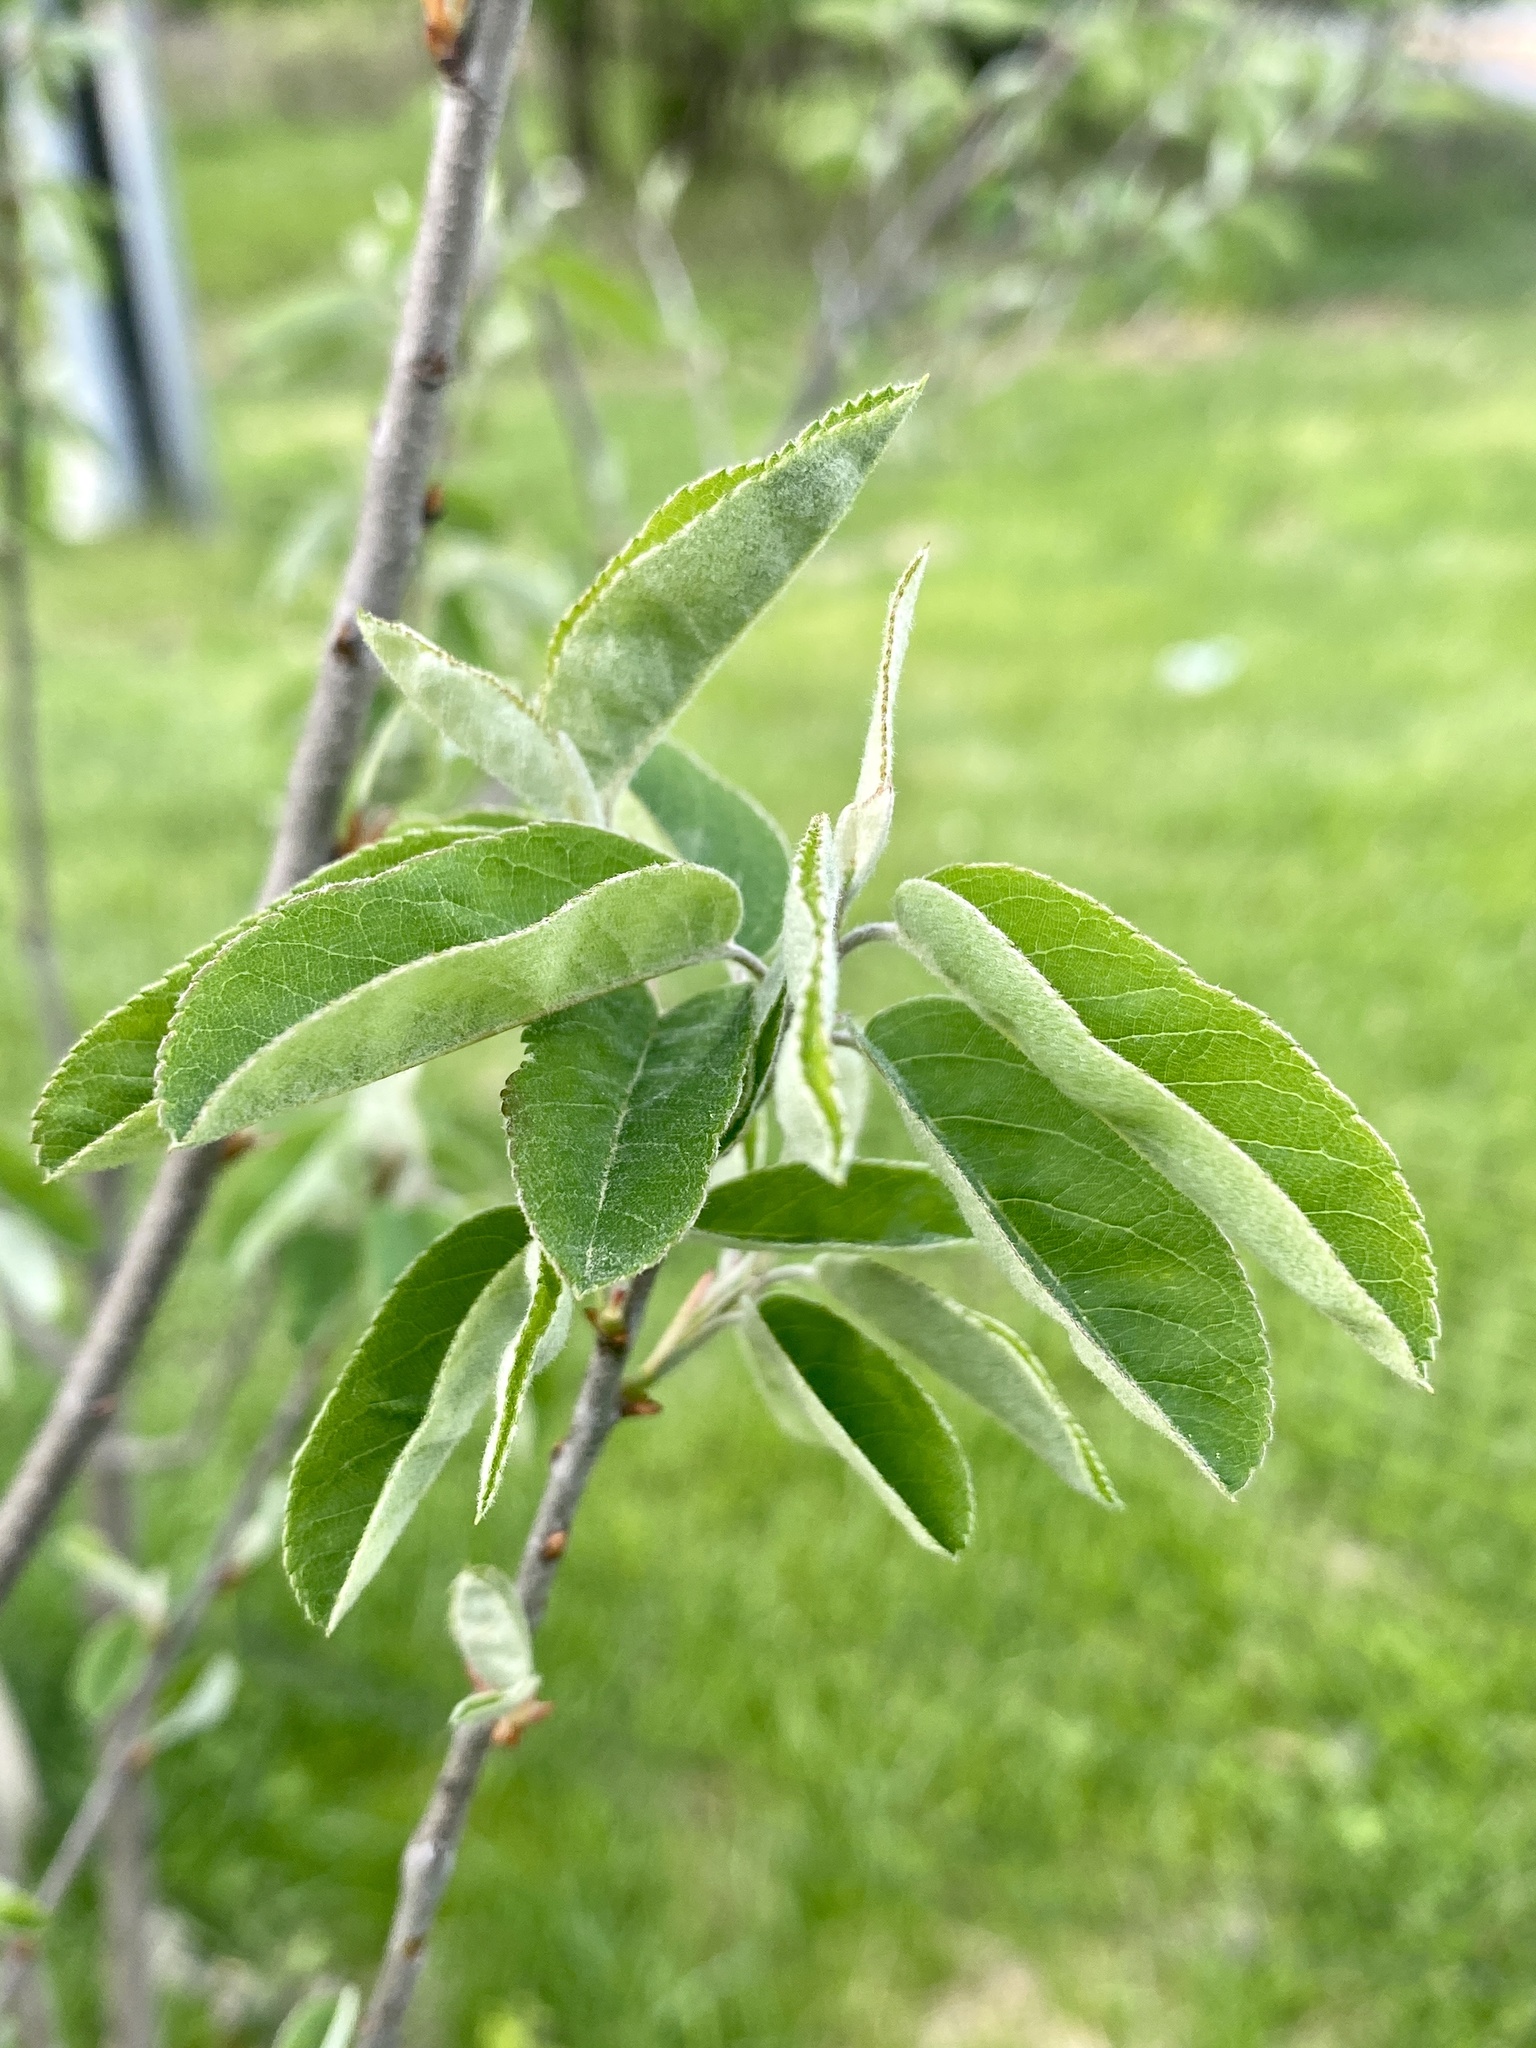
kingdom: Animalia
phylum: Arthropoda
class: Insecta
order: Lepidoptera
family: Psychidae
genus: Thyridopteryx
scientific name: Thyridopteryx ephemeraeformis
